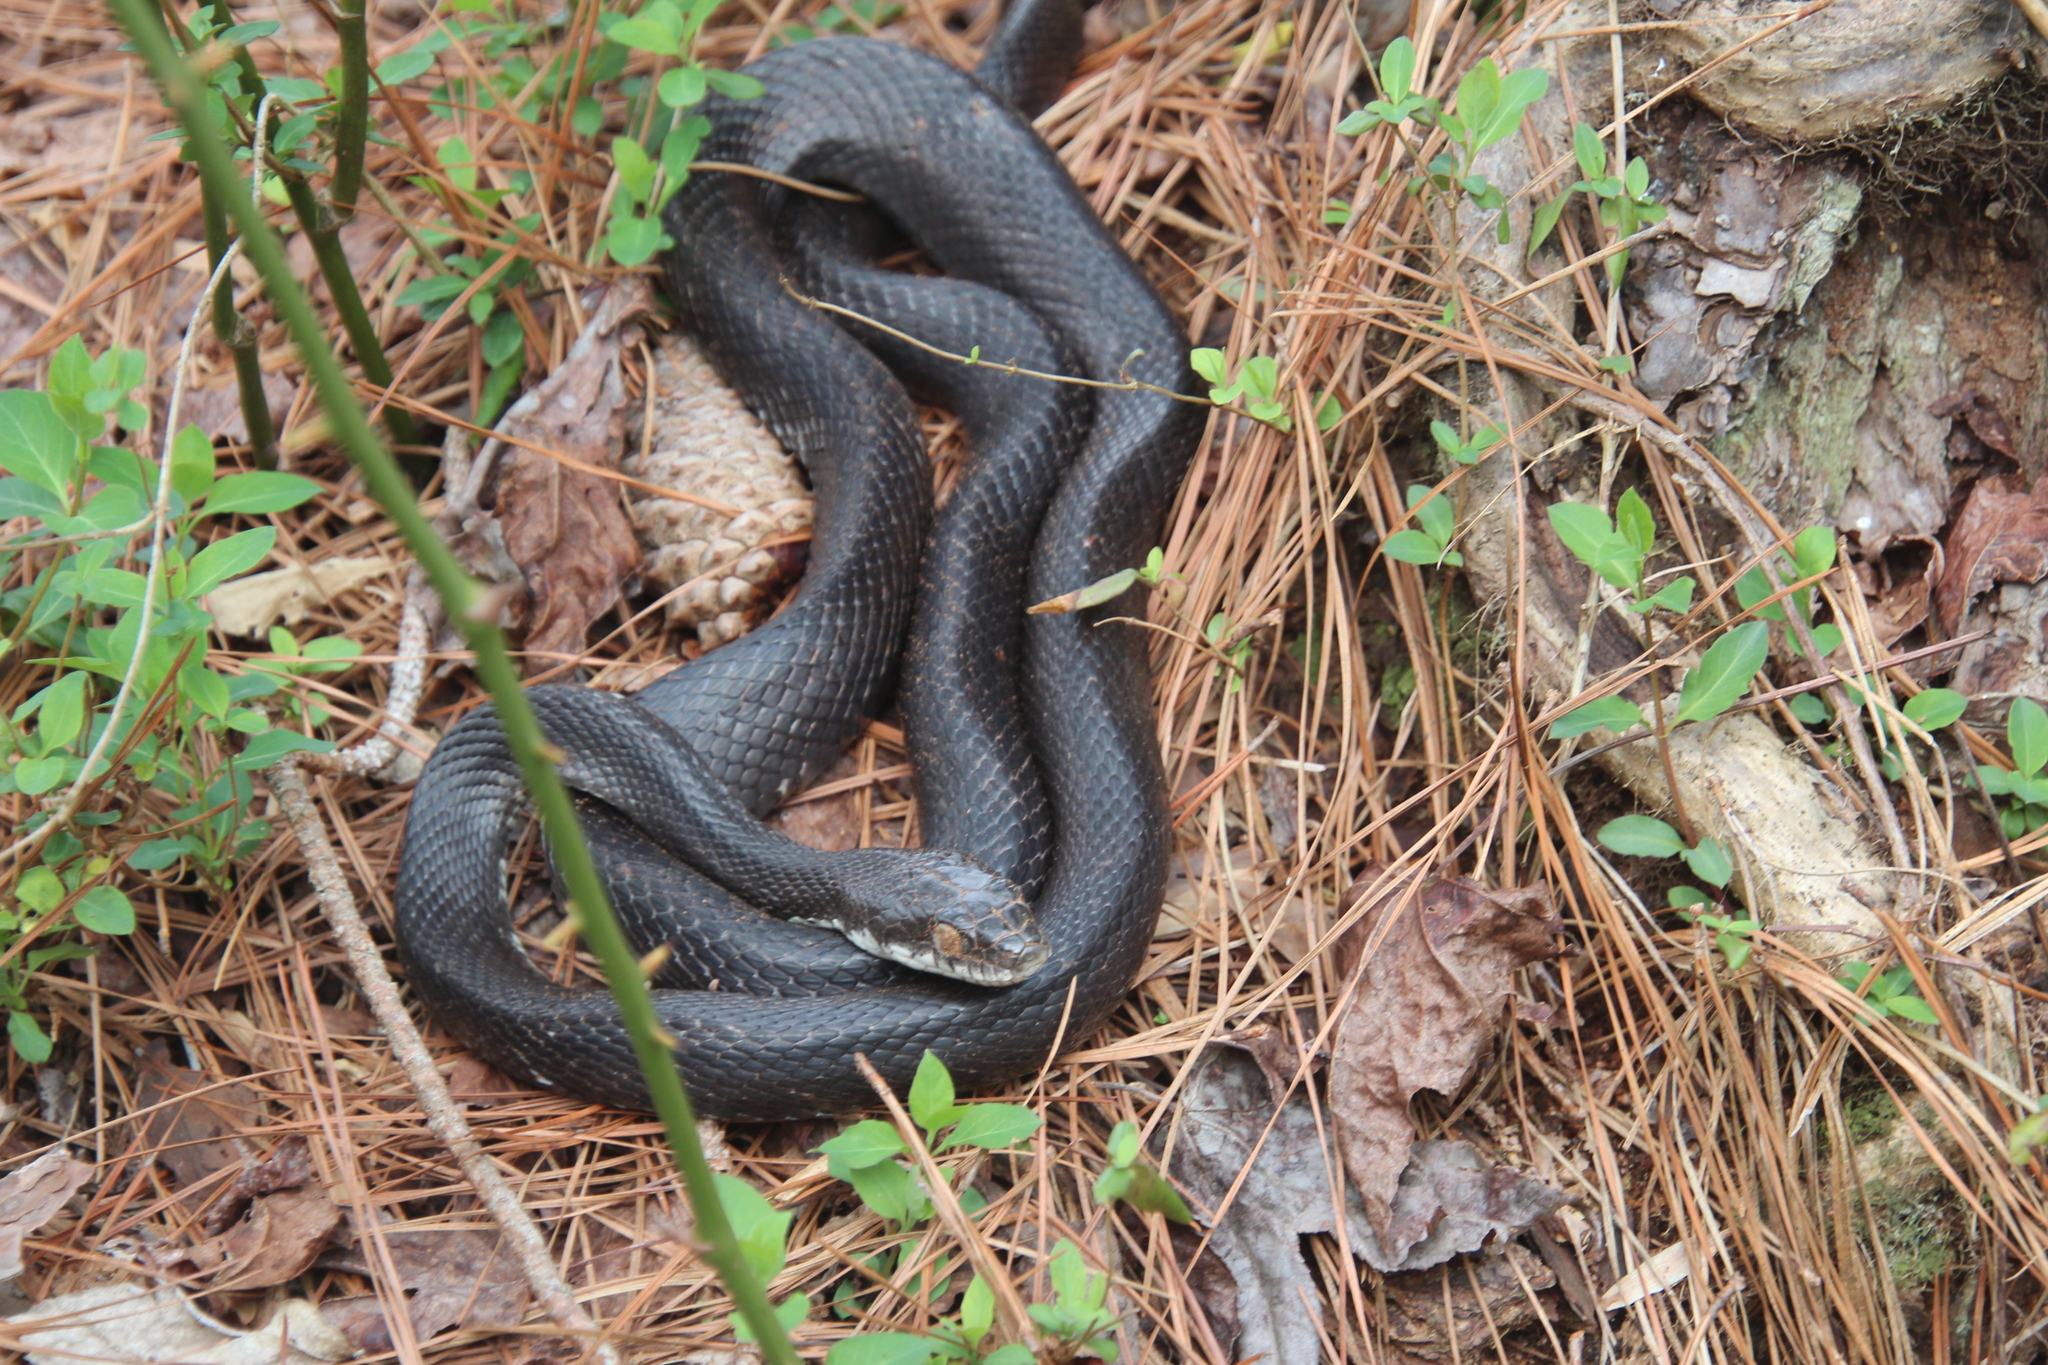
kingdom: Animalia
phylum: Chordata
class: Squamata
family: Colubridae
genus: Pantherophis
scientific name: Pantherophis alleghaniensis
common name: Eastern rat snake
